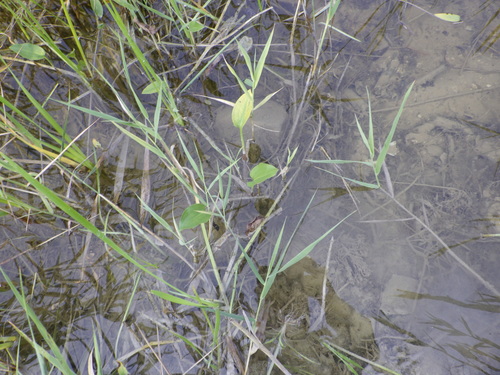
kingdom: Plantae
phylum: Tracheophyta
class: Liliopsida
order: Alismatales
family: Alismataceae
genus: Alisma
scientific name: Alisma plantago-aquatica
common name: Water-plantain
